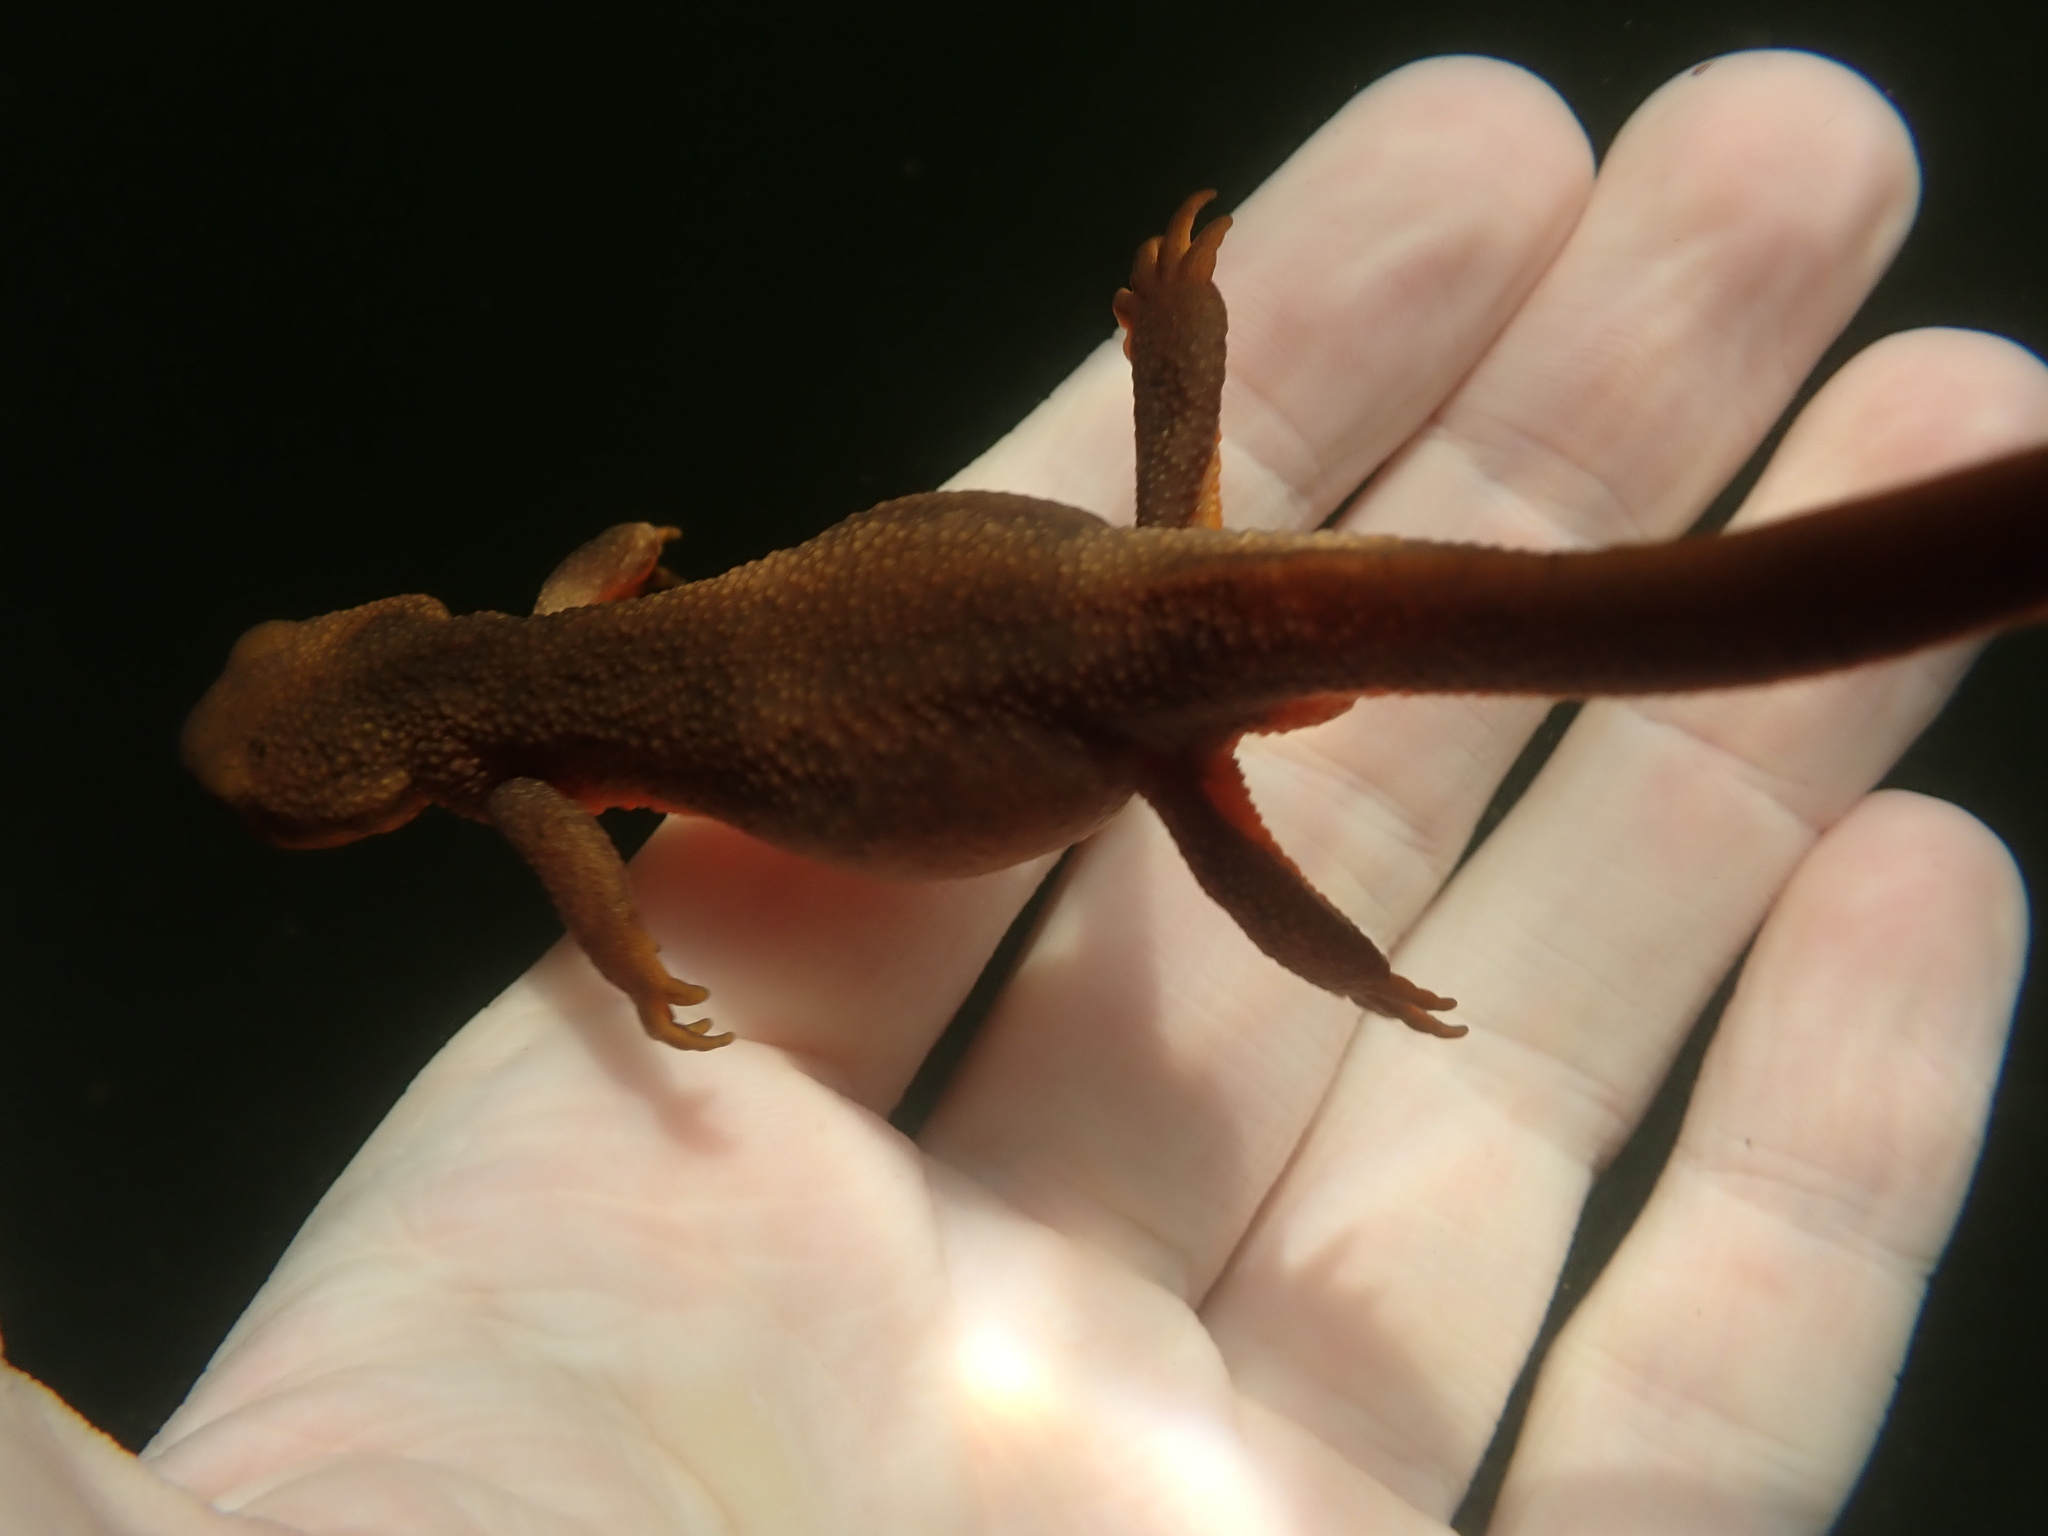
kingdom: Animalia
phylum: Chordata
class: Amphibia
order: Caudata
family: Salamandridae
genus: Taricha
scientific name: Taricha granulosa
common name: Roughskin newt
